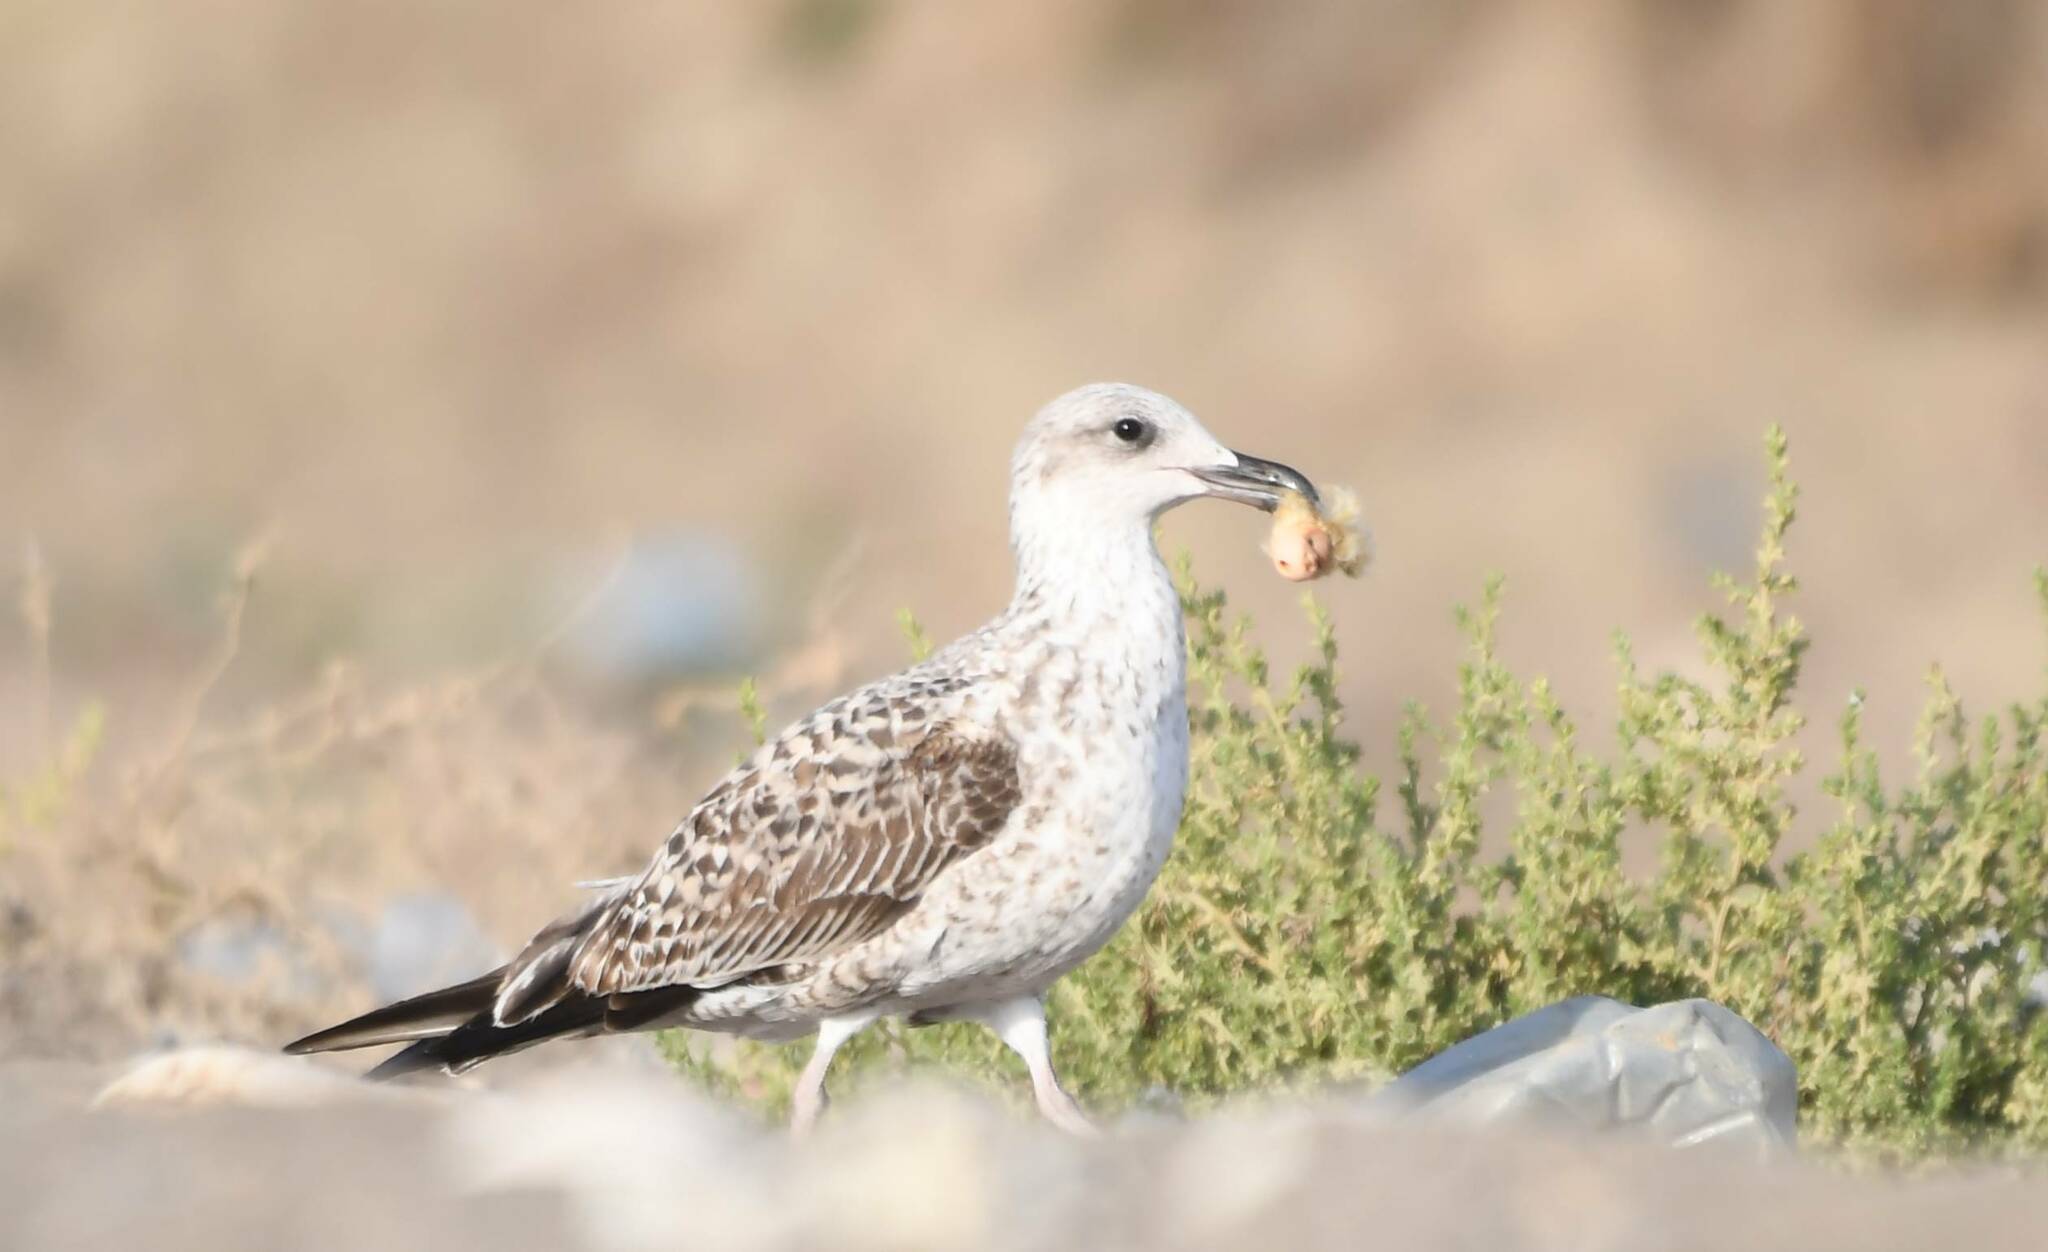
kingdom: Animalia
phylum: Chordata
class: Aves
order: Charadriiformes
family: Laridae
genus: Larus
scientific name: Larus michahellis
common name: Yellow-legged gull
